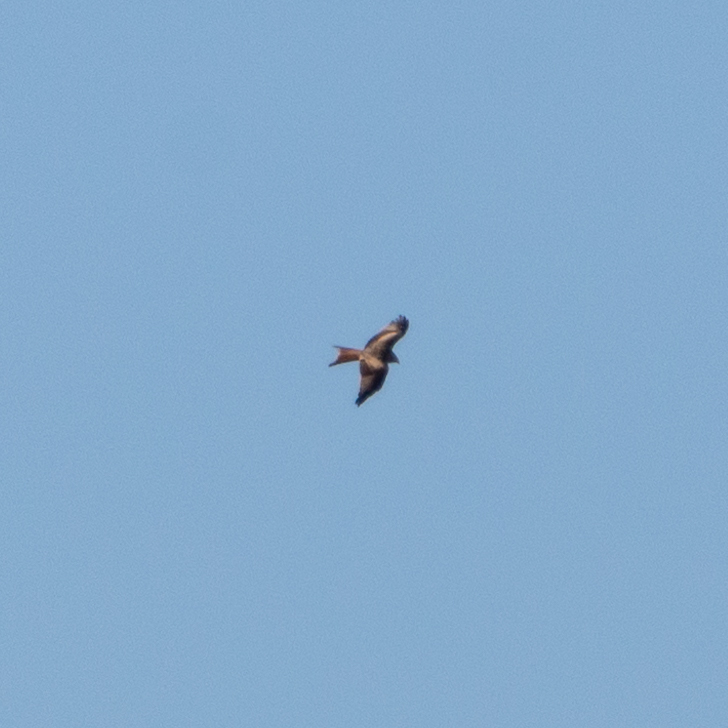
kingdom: Animalia
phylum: Chordata
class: Aves
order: Accipitriformes
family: Accipitridae
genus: Milvus
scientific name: Milvus milvus
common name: Red kite
